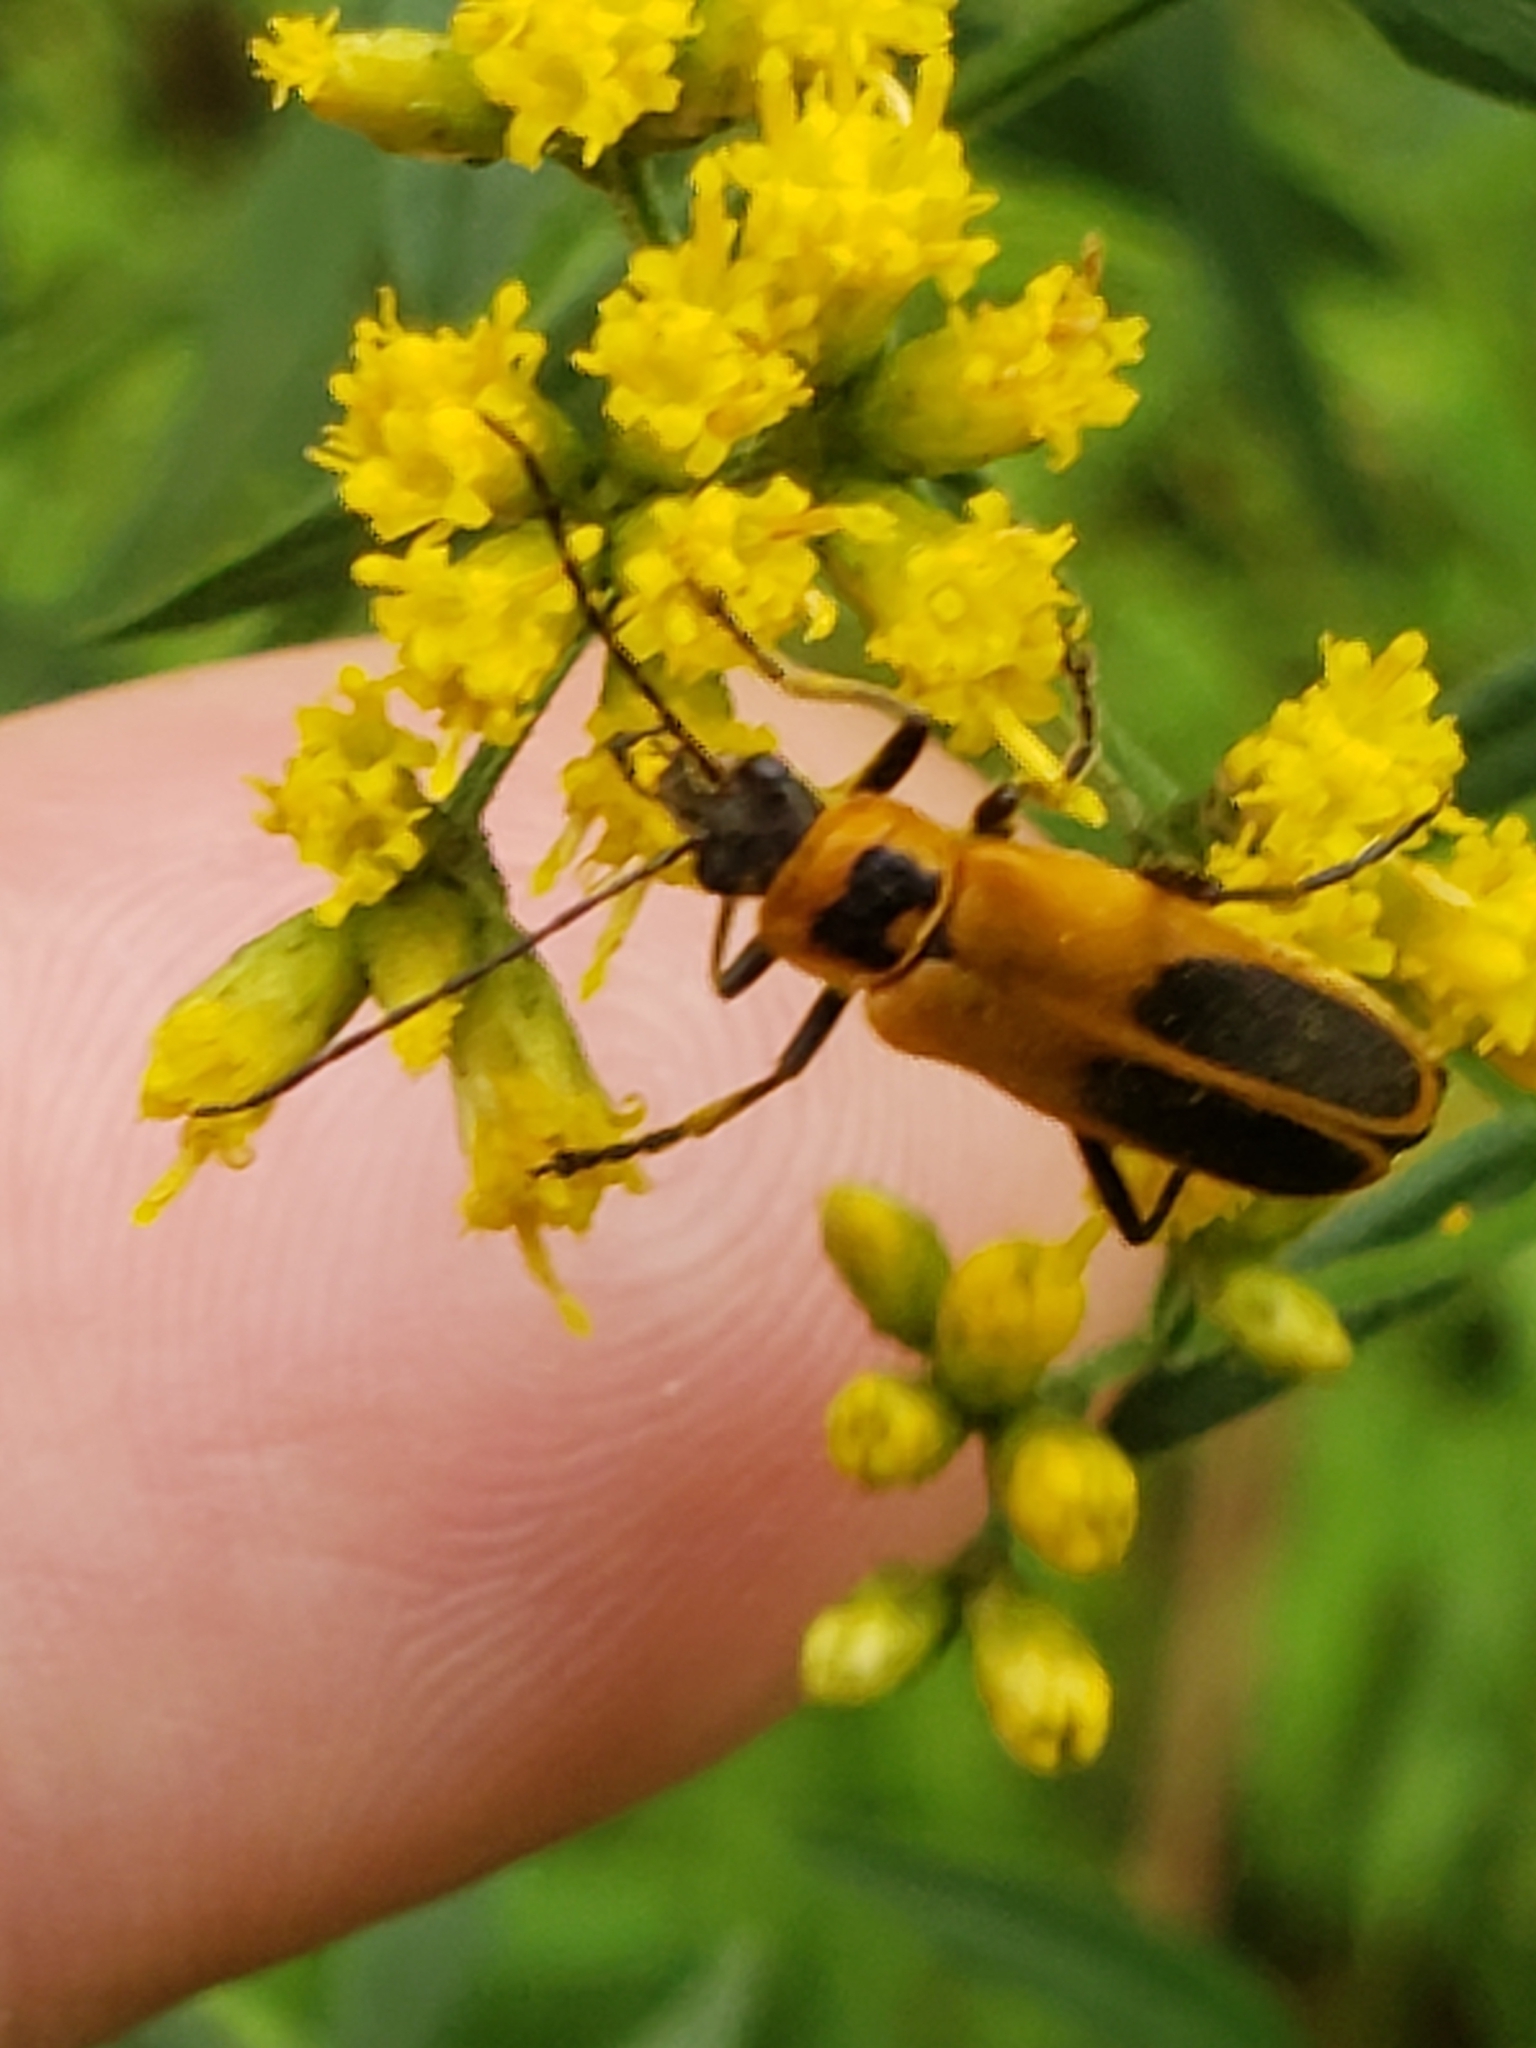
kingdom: Animalia
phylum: Arthropoda
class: Insecta
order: Coleoptera
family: Cantharidae
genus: Chauliognathus
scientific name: Chauliognathus pensylvanicus
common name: Goldenrod soldier beetle
